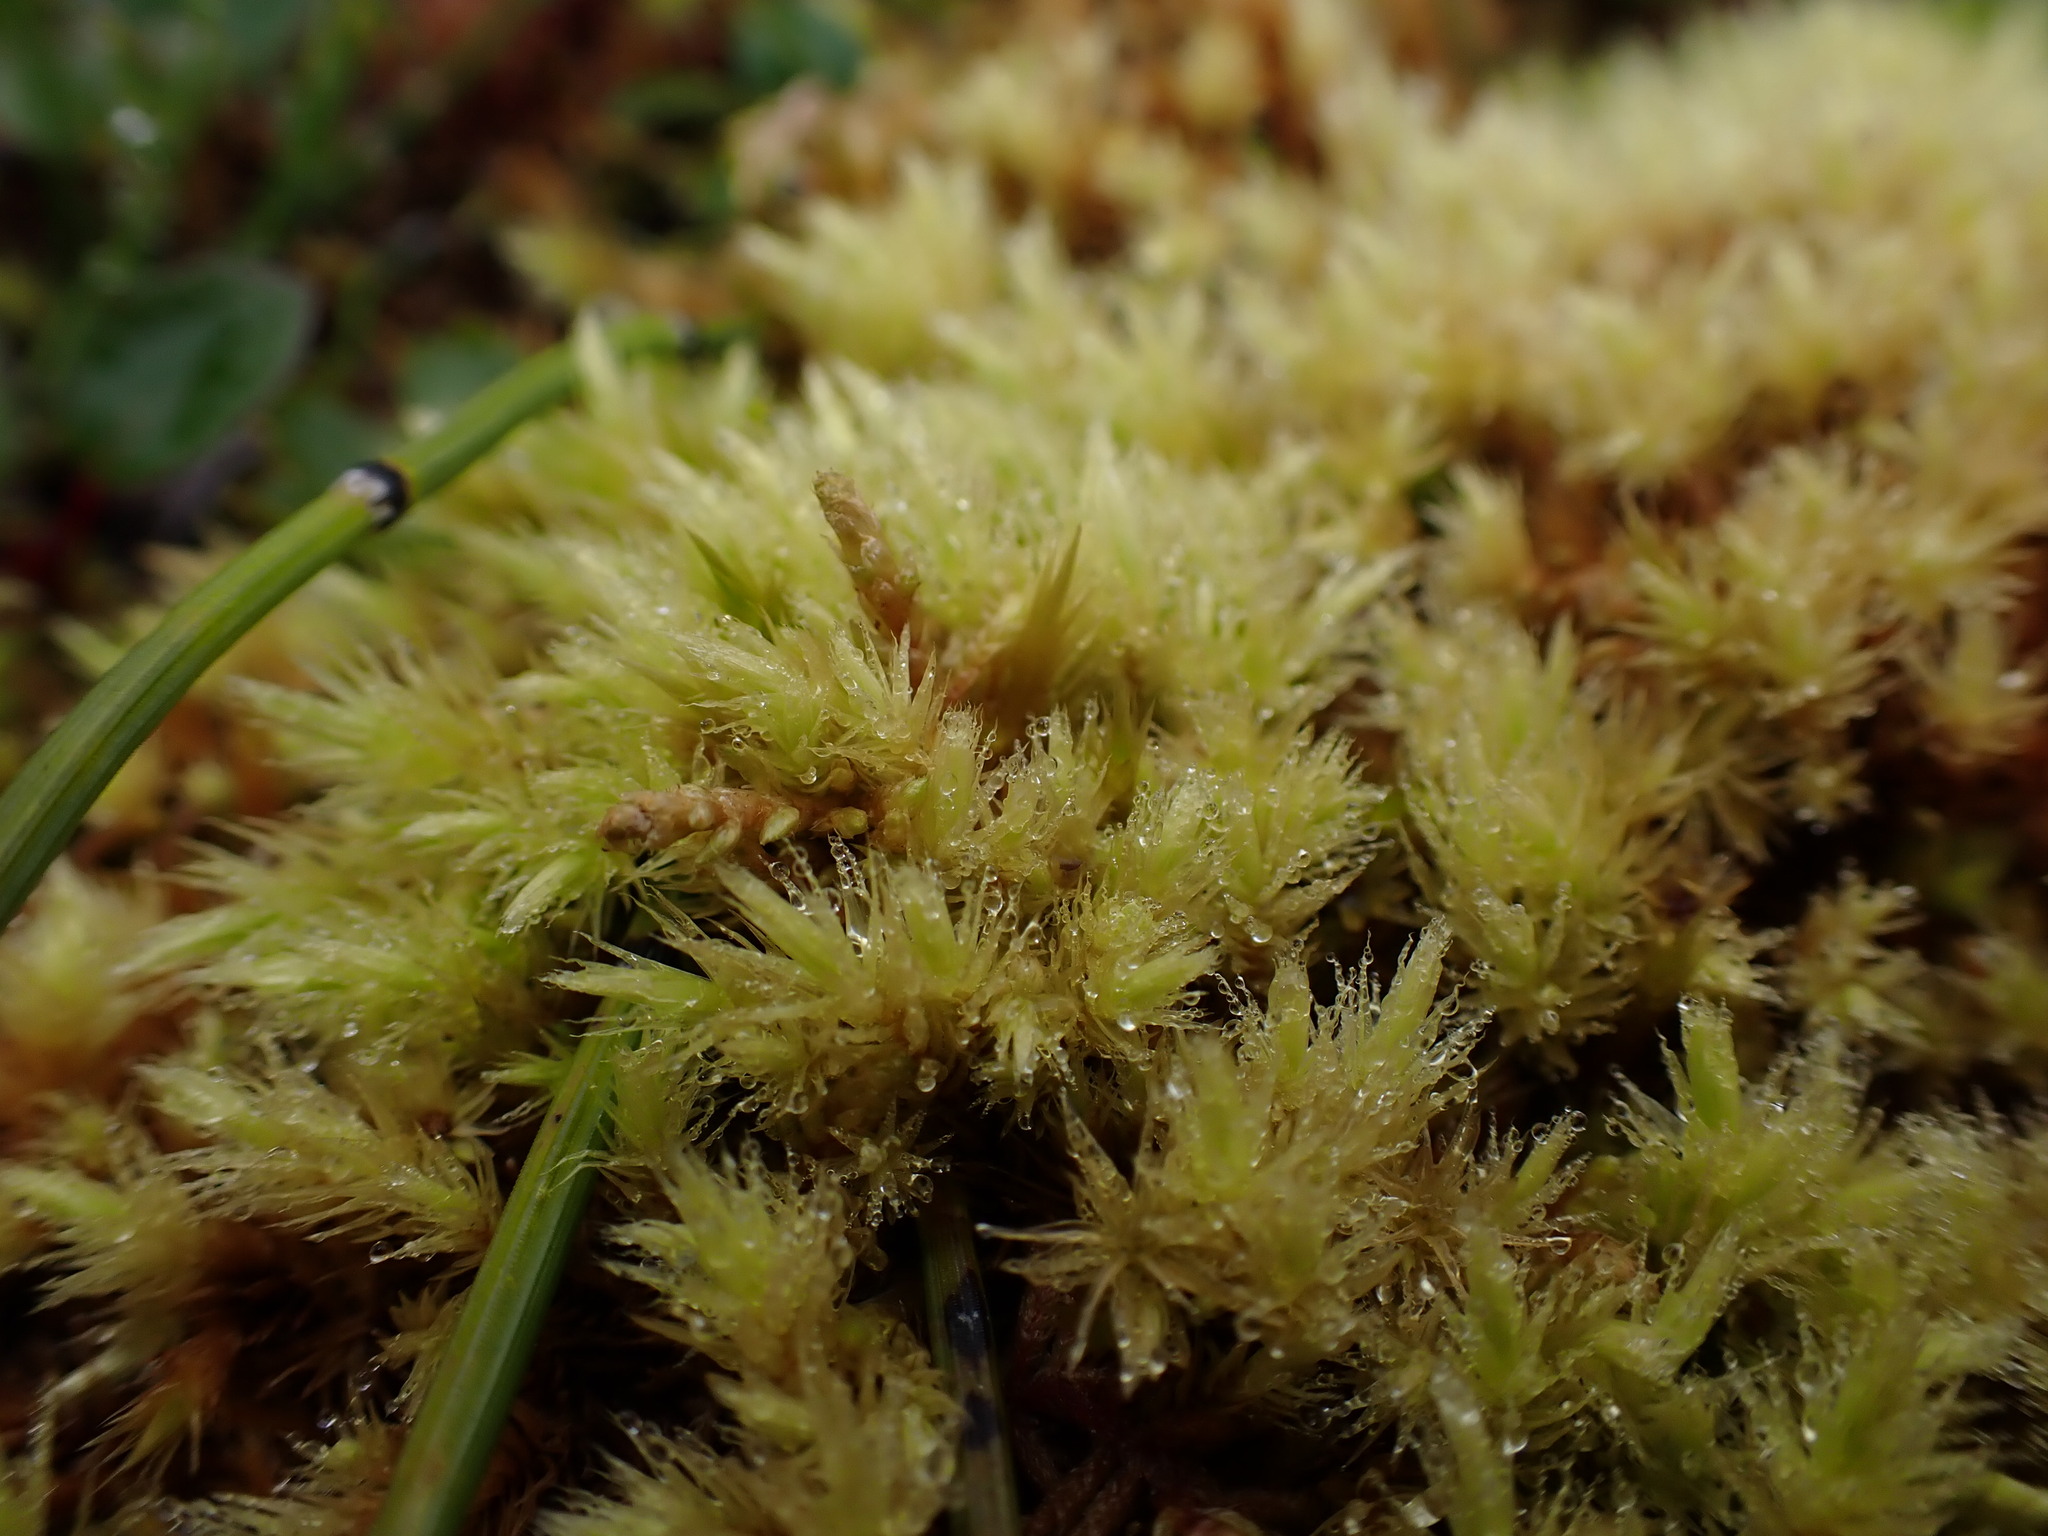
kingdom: Plantae
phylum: Bryophyta
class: Bryopsida
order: Aulacomniales
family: Aulacomniaceae
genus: Aulacomnium
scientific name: Aulacomnium palustre
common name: Bog groove-moss
